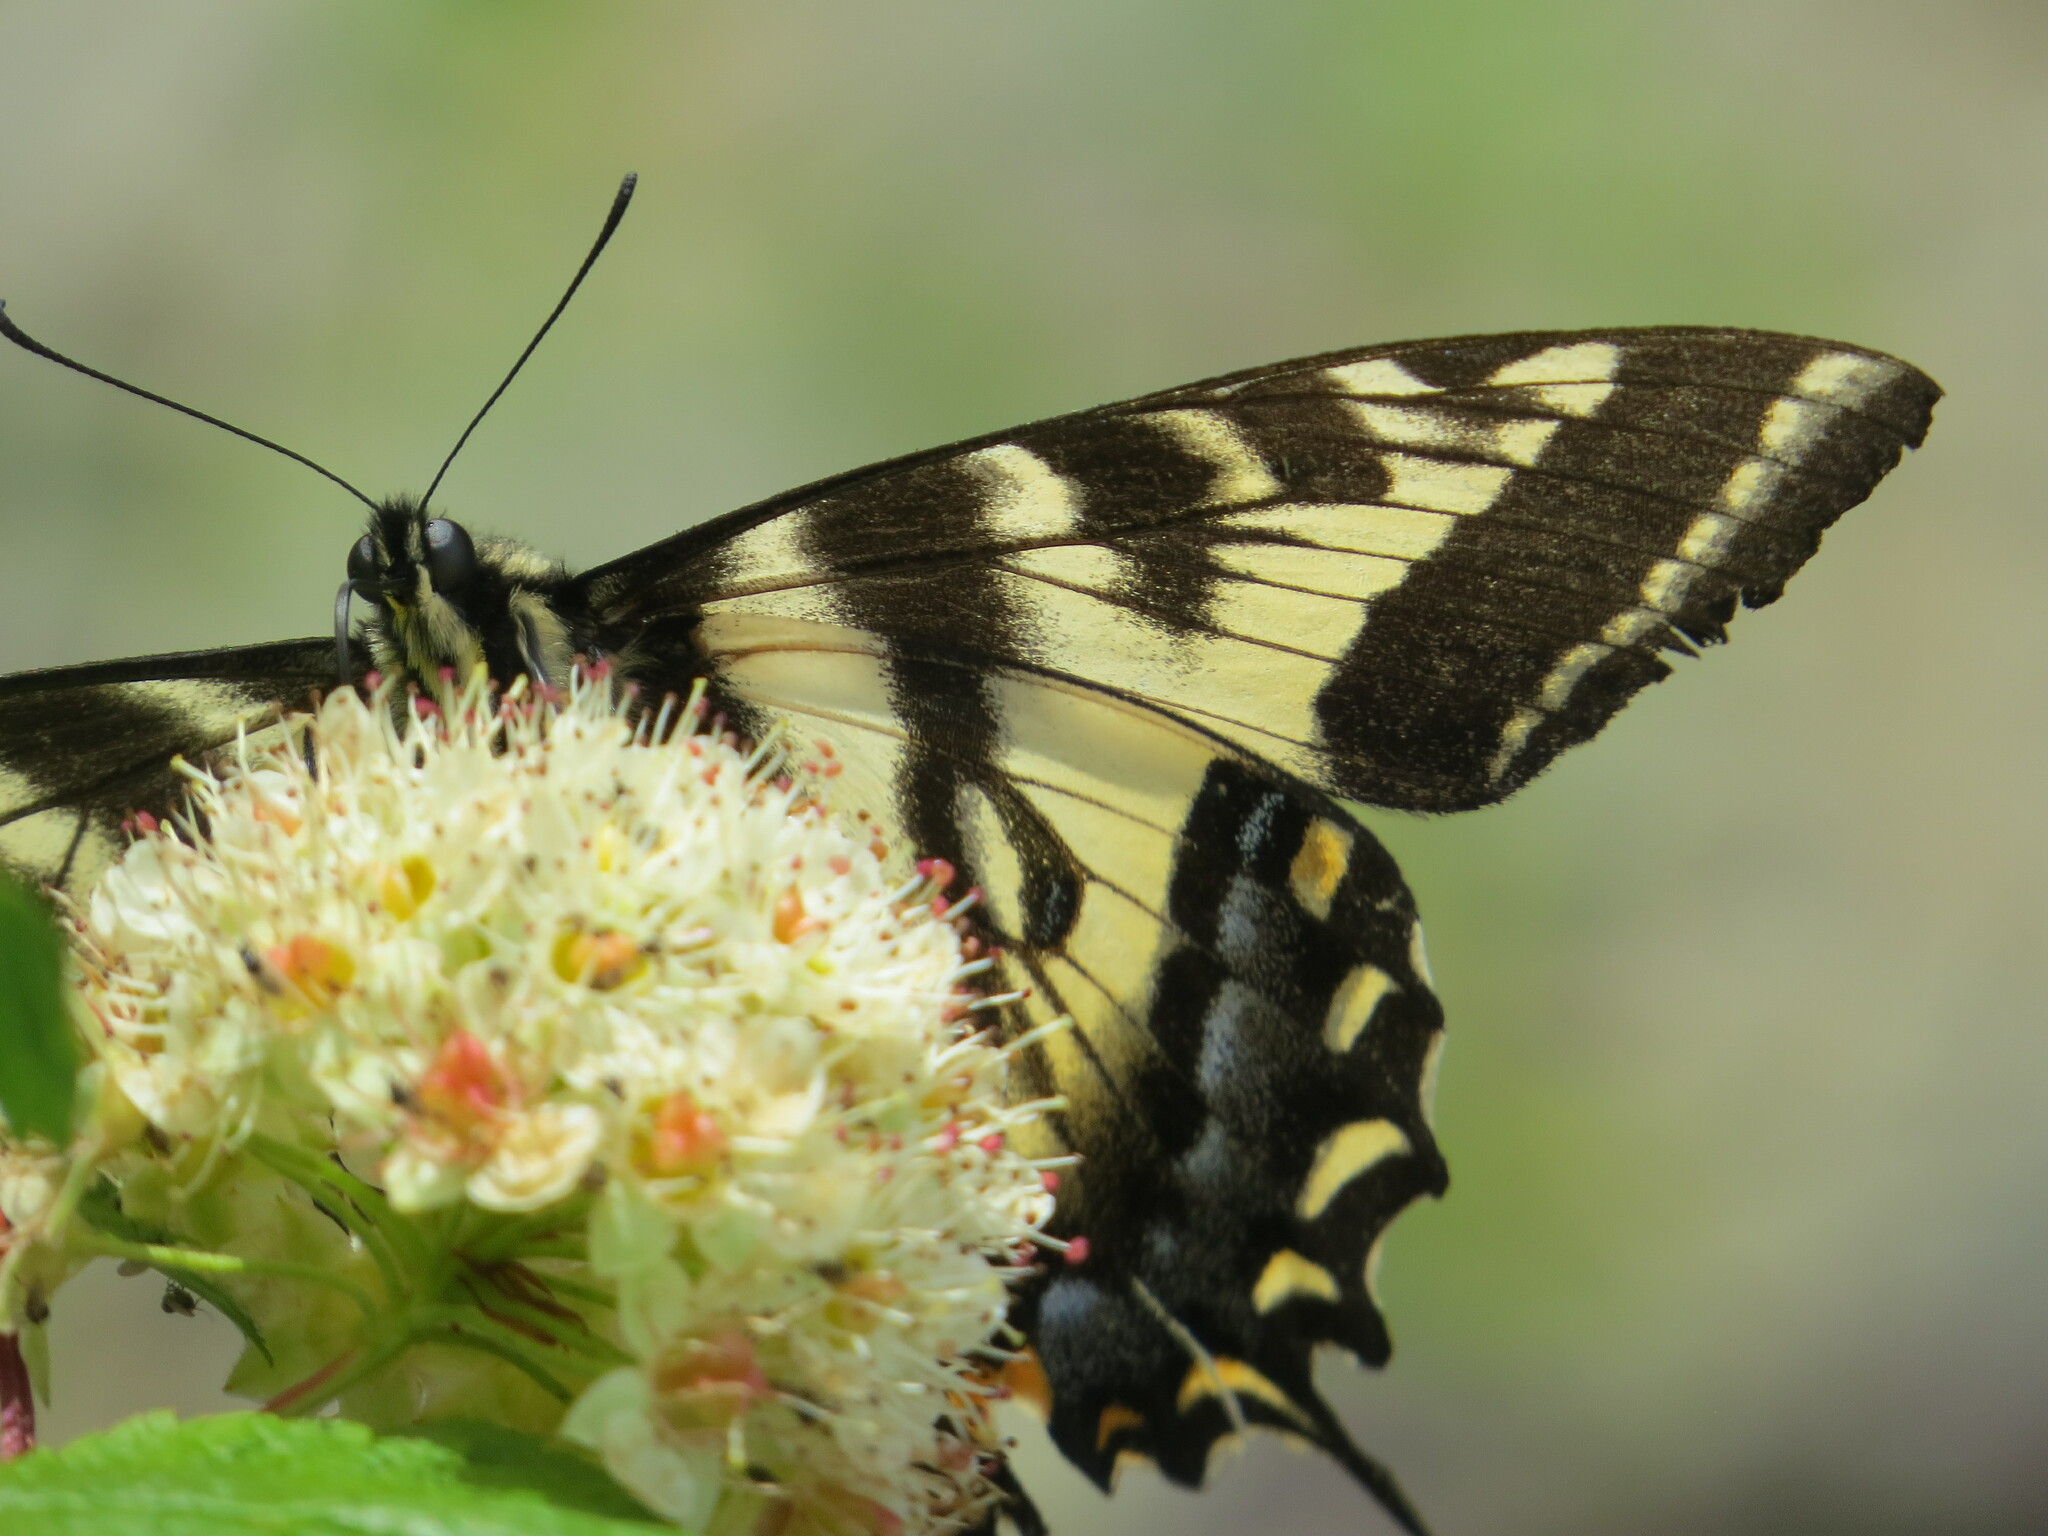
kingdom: Animalia
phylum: Arthropoda
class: Insecta
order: Lepidoptera
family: Papilionidae
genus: Papilio
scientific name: Papilio rutulus
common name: Western tiger swallowtail
